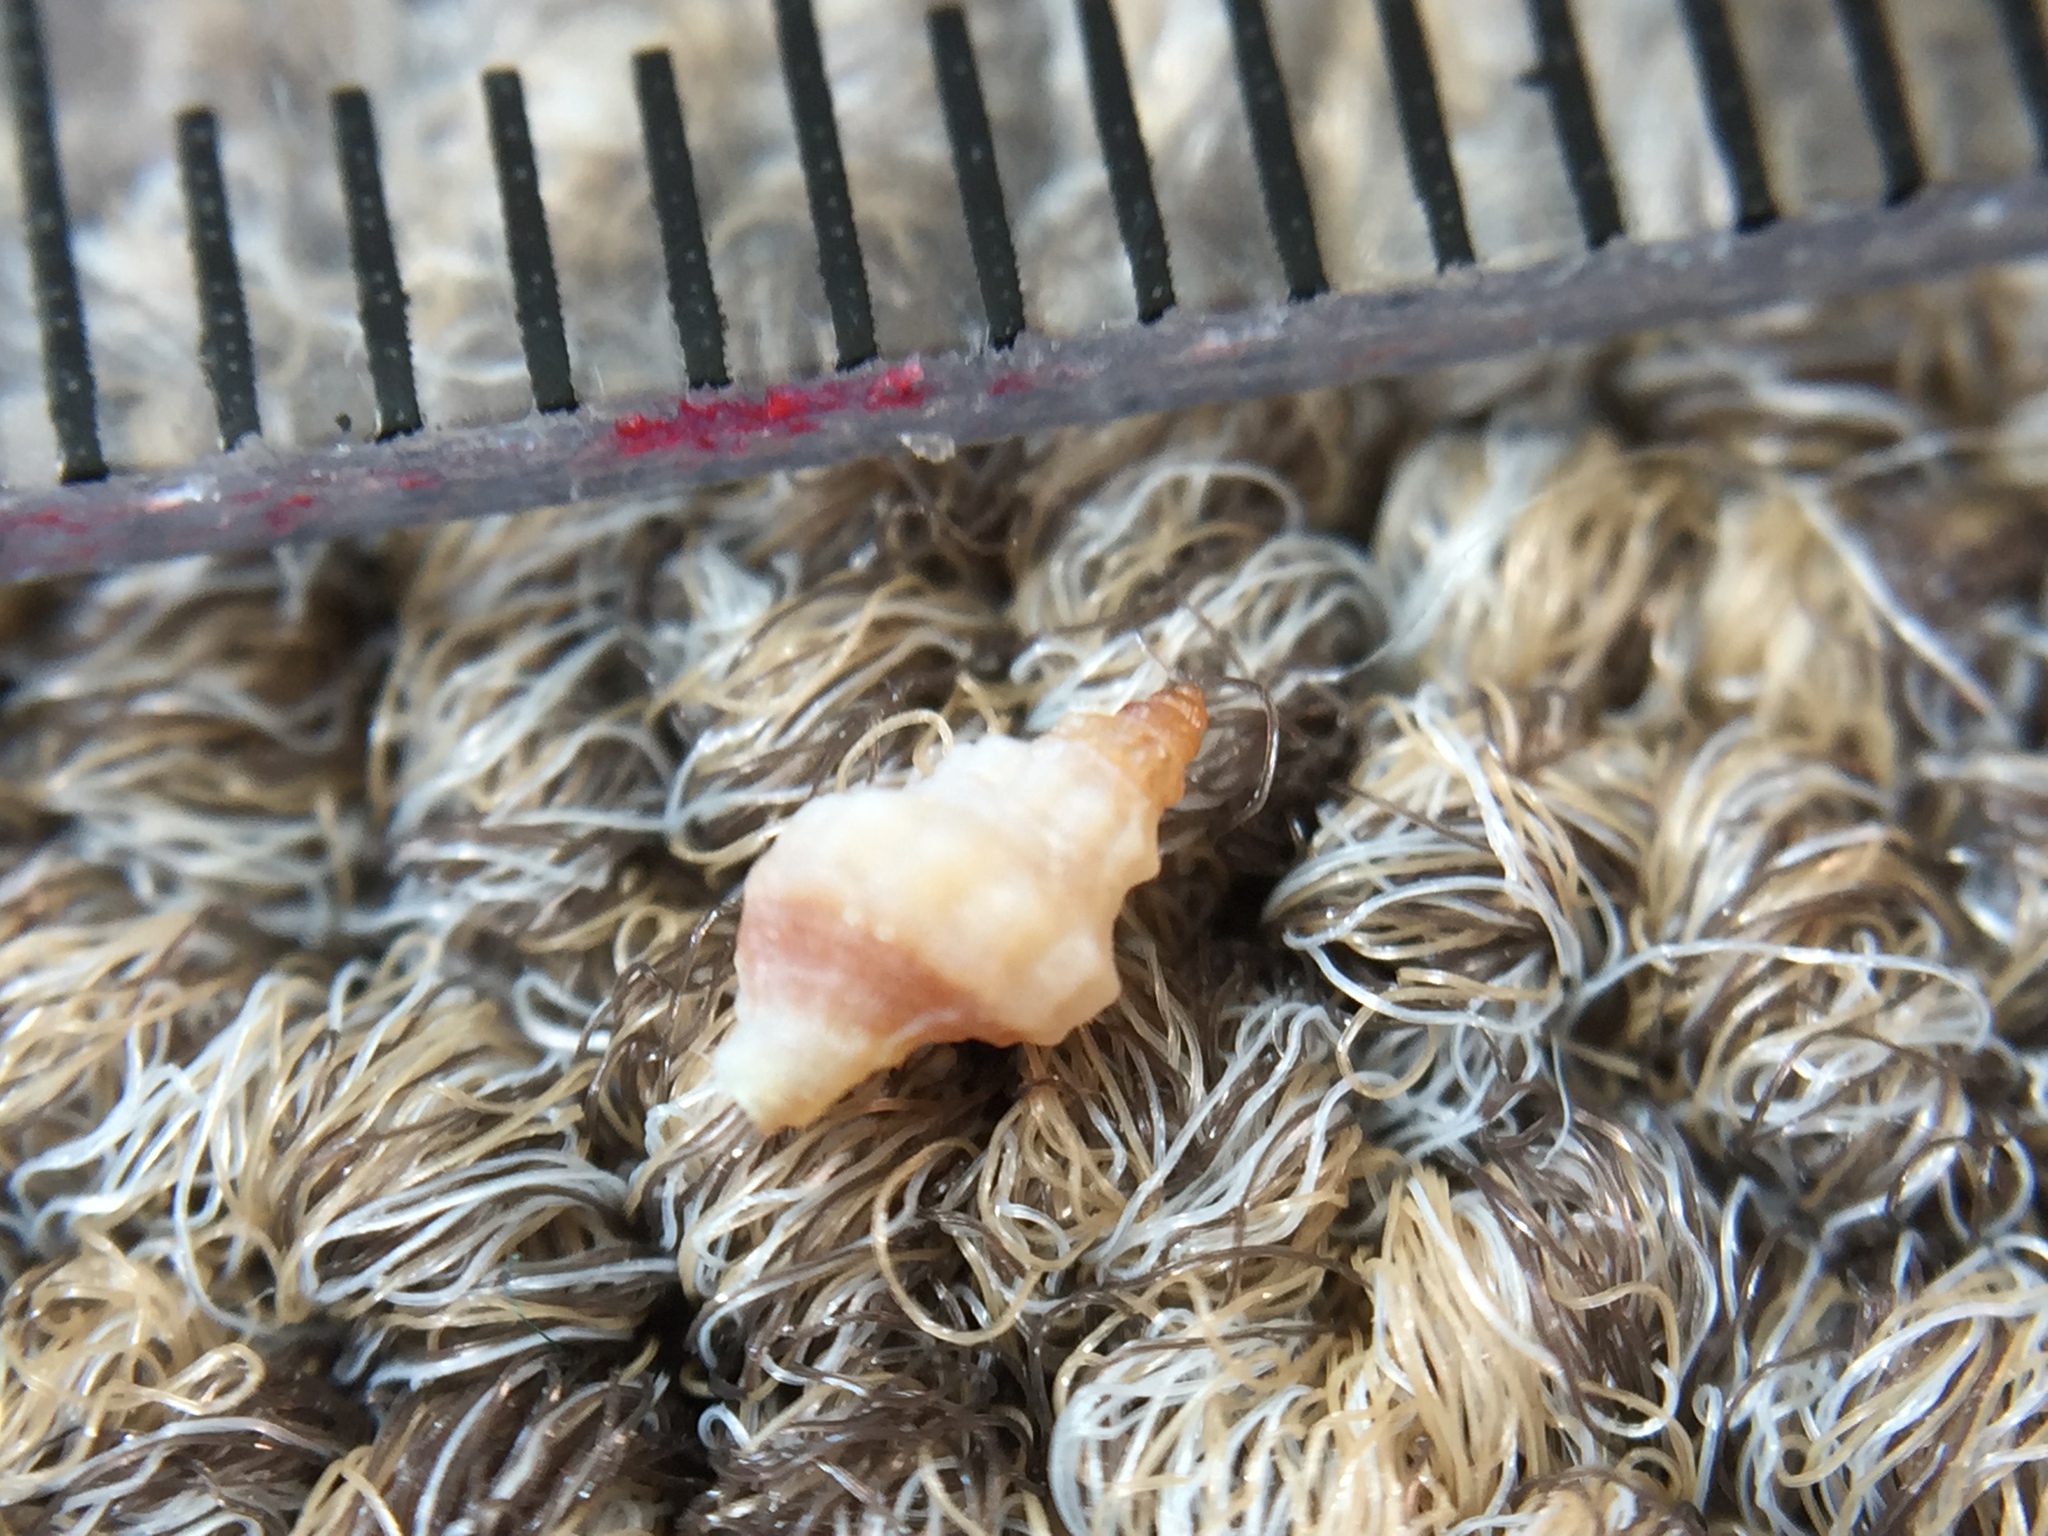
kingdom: Animalia
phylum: Mollusca
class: Gastropoda
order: Neogastropoda
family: Prosiphonidae
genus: Austrofusus
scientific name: Austrofusus glans
